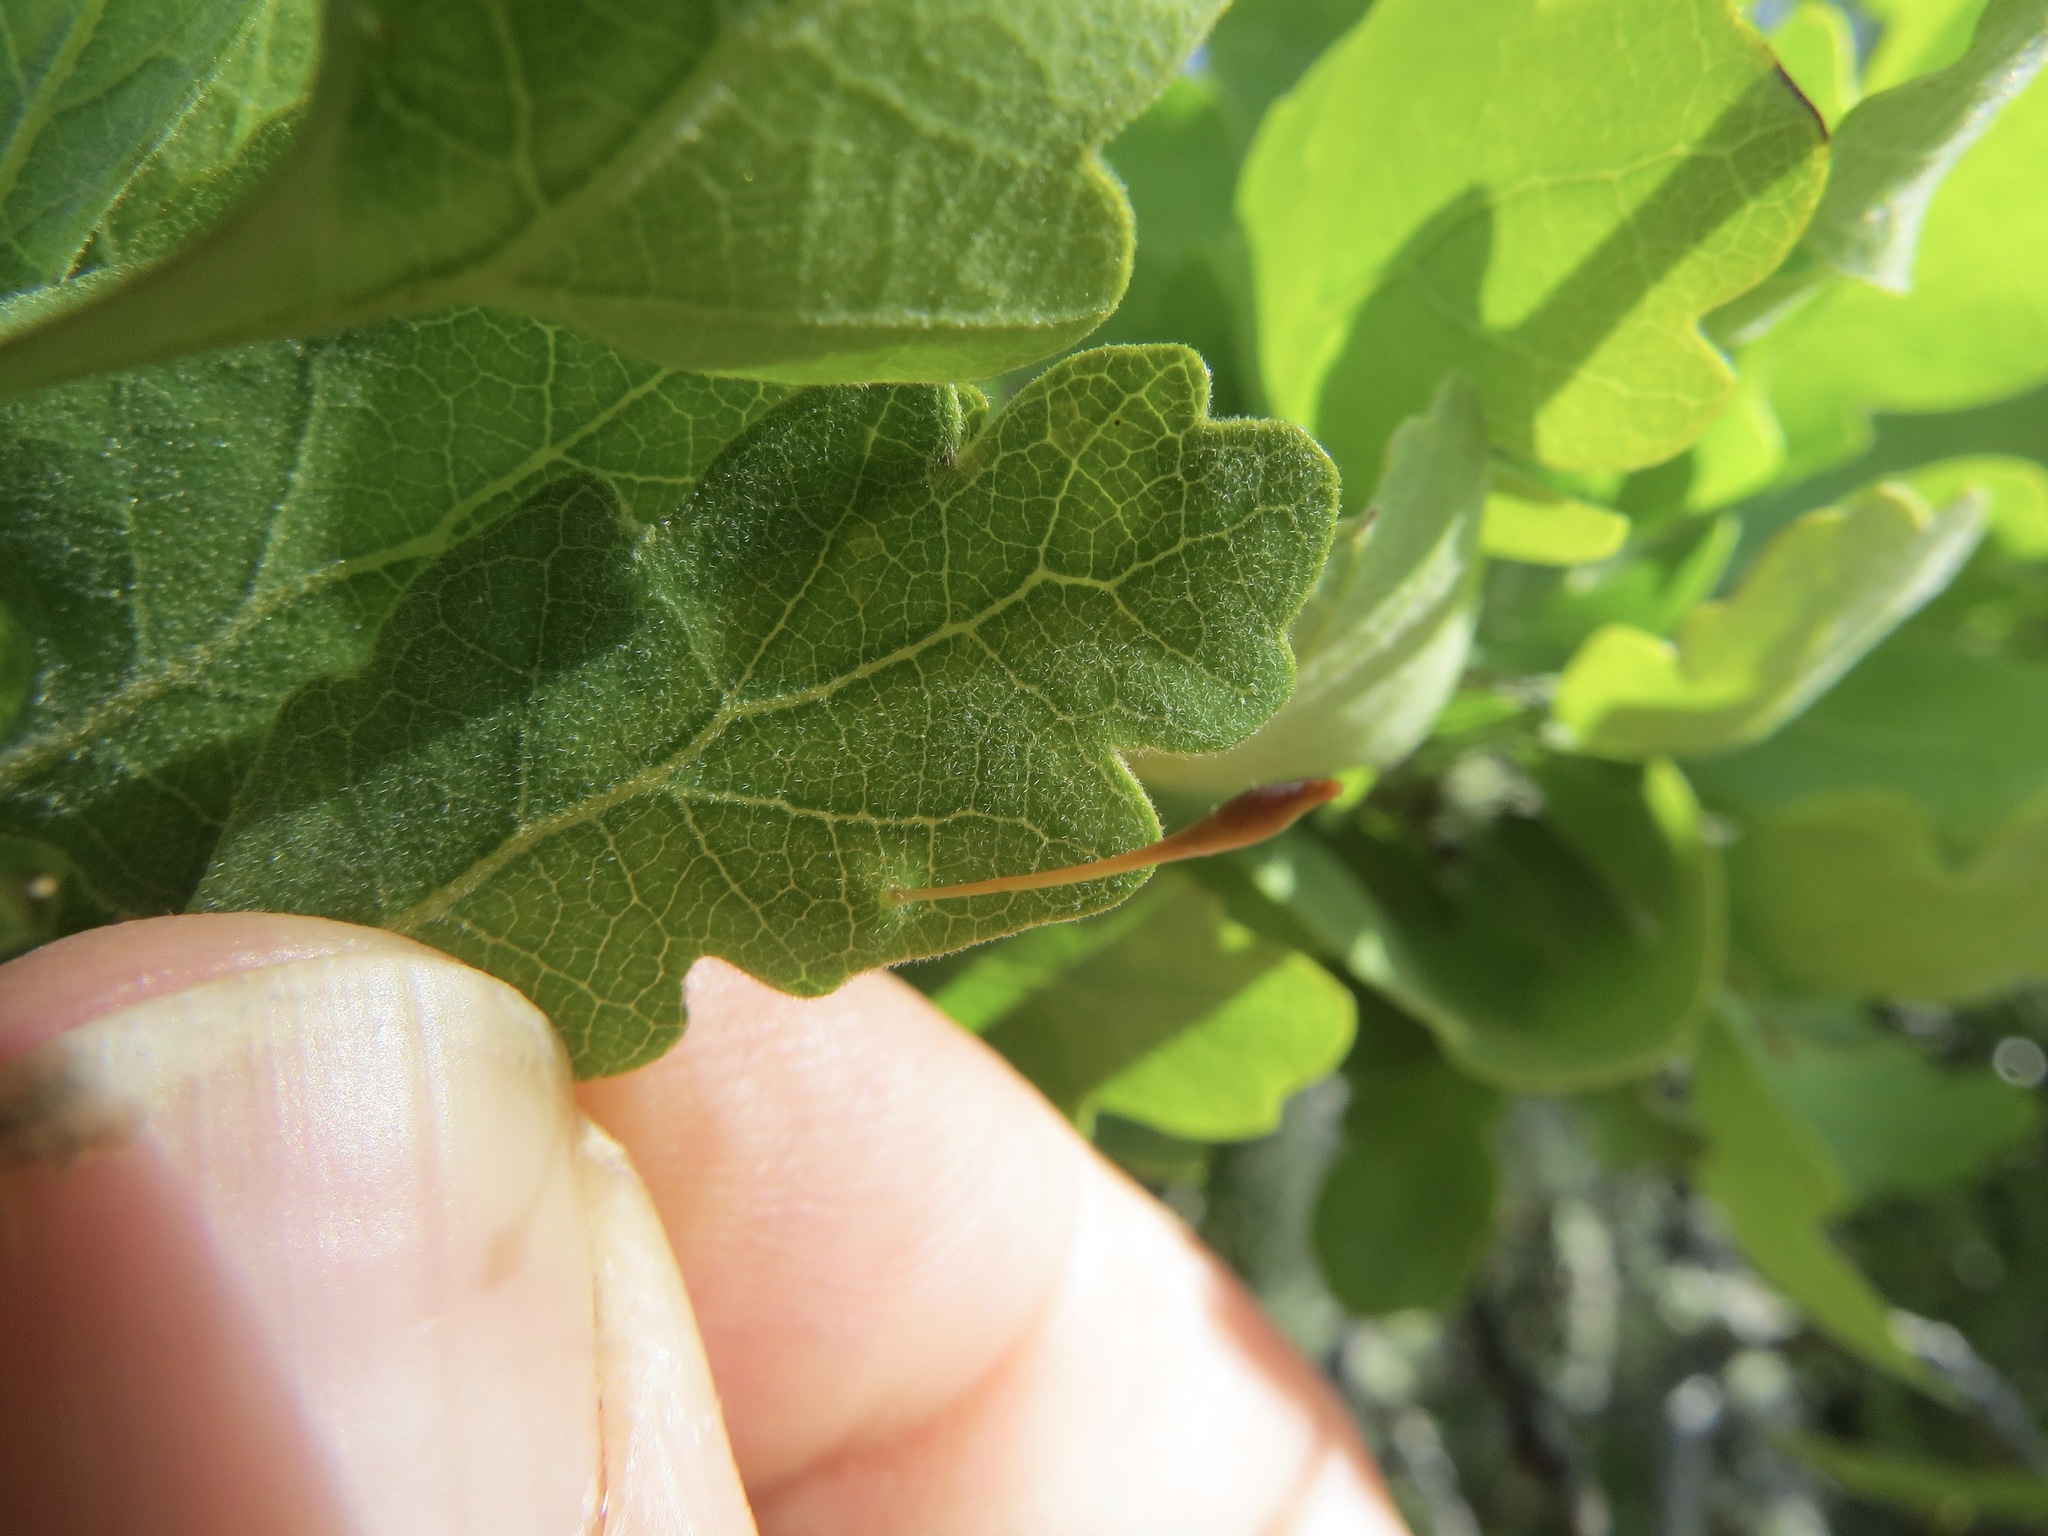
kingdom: Animalia
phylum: Arthropoda
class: Insecta
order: Hymenoptera
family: Cynipidae
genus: Andricus
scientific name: Andricus
